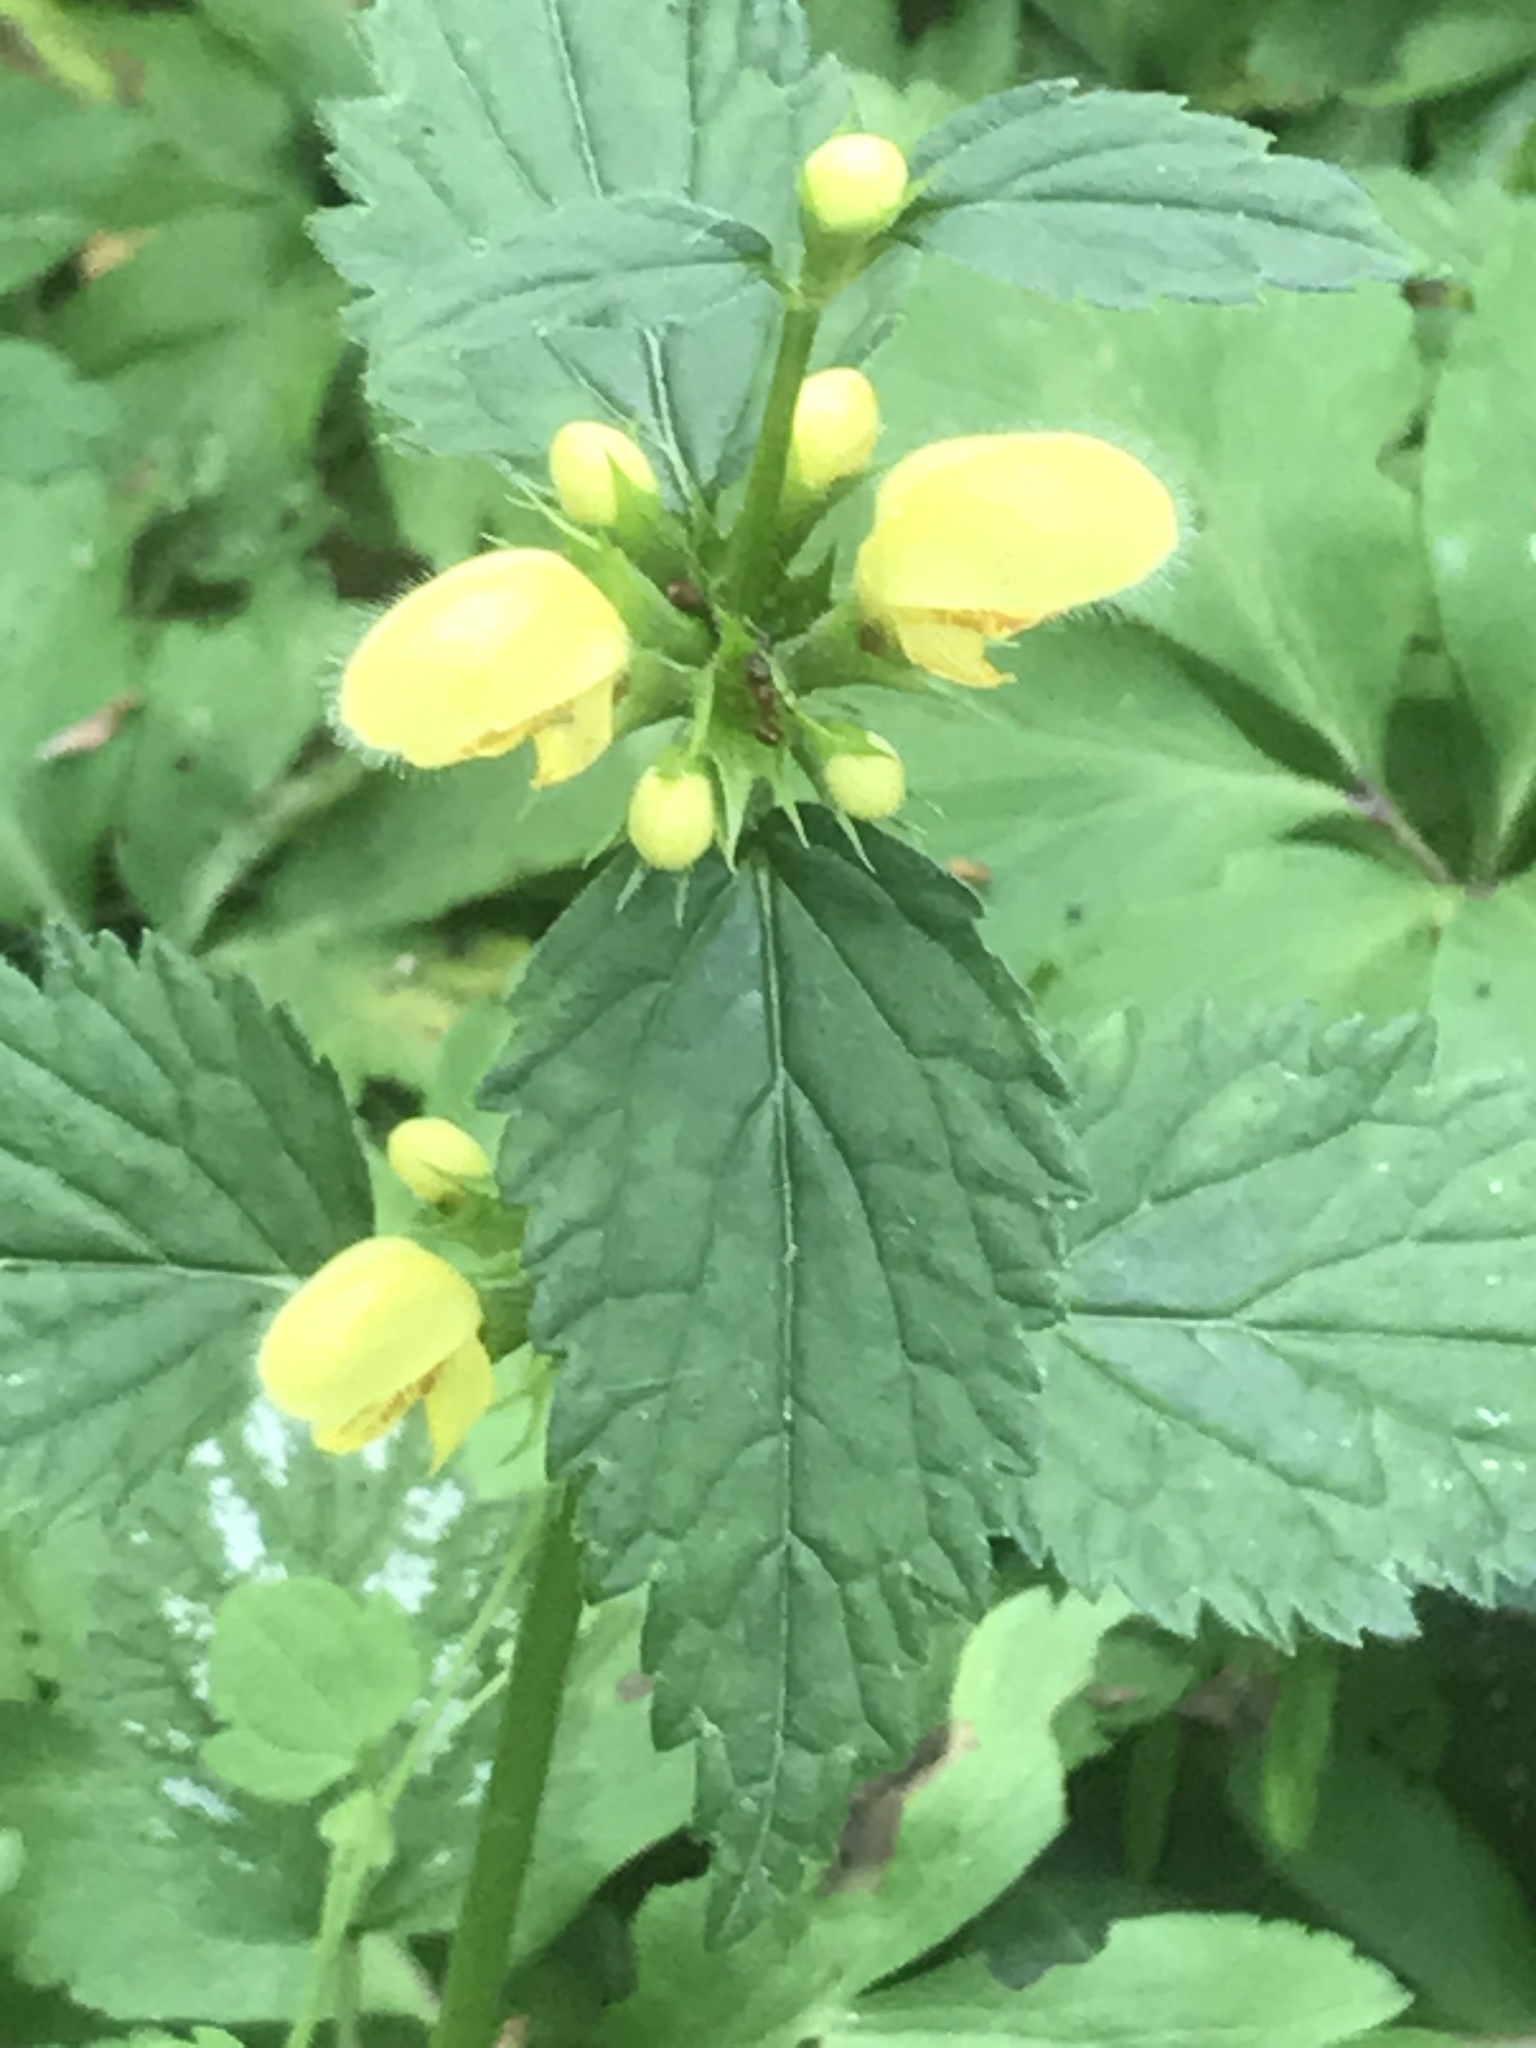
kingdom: Plantae
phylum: Tracheophyta
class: Magnoliopsida
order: Lamiales
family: Lamiaceae
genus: Lamium
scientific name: Lamium galeobdolon
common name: Yellow archangel
